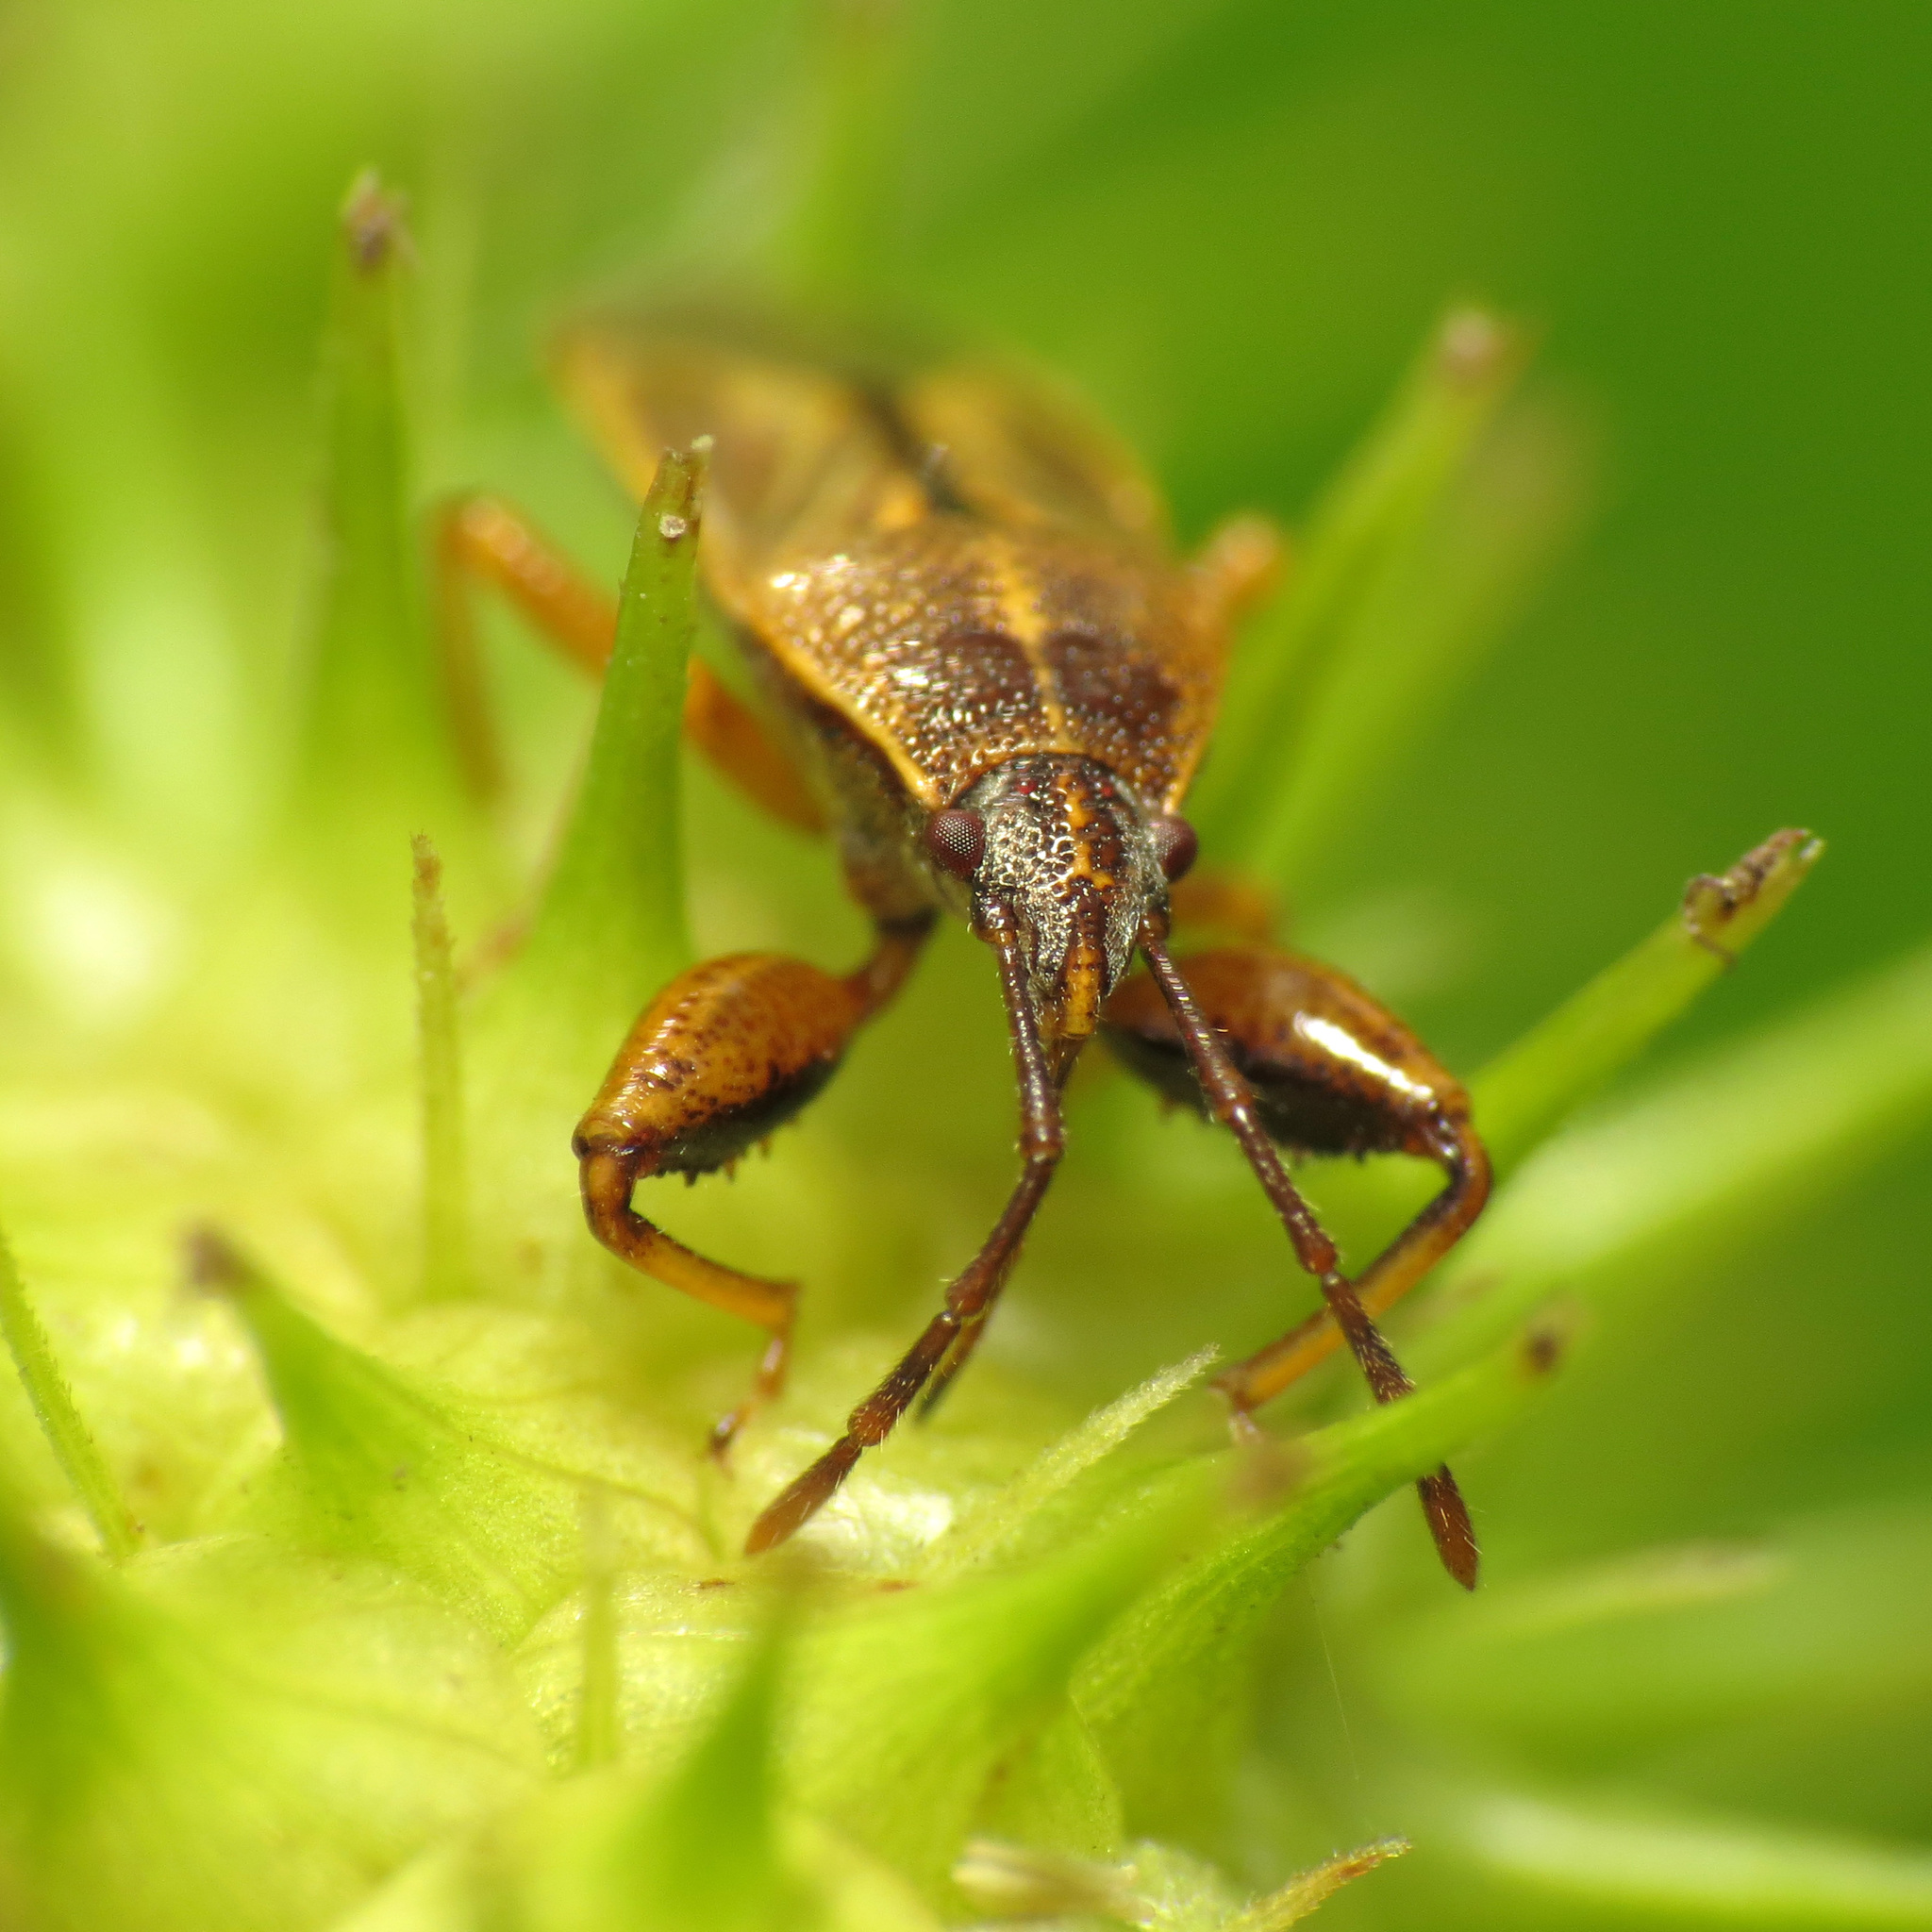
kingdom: Animalia
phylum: Arthropoda
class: Insecta
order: Hemiptera
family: Pachygronthidae
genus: Oedancala
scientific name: Oedancala dorsalis
